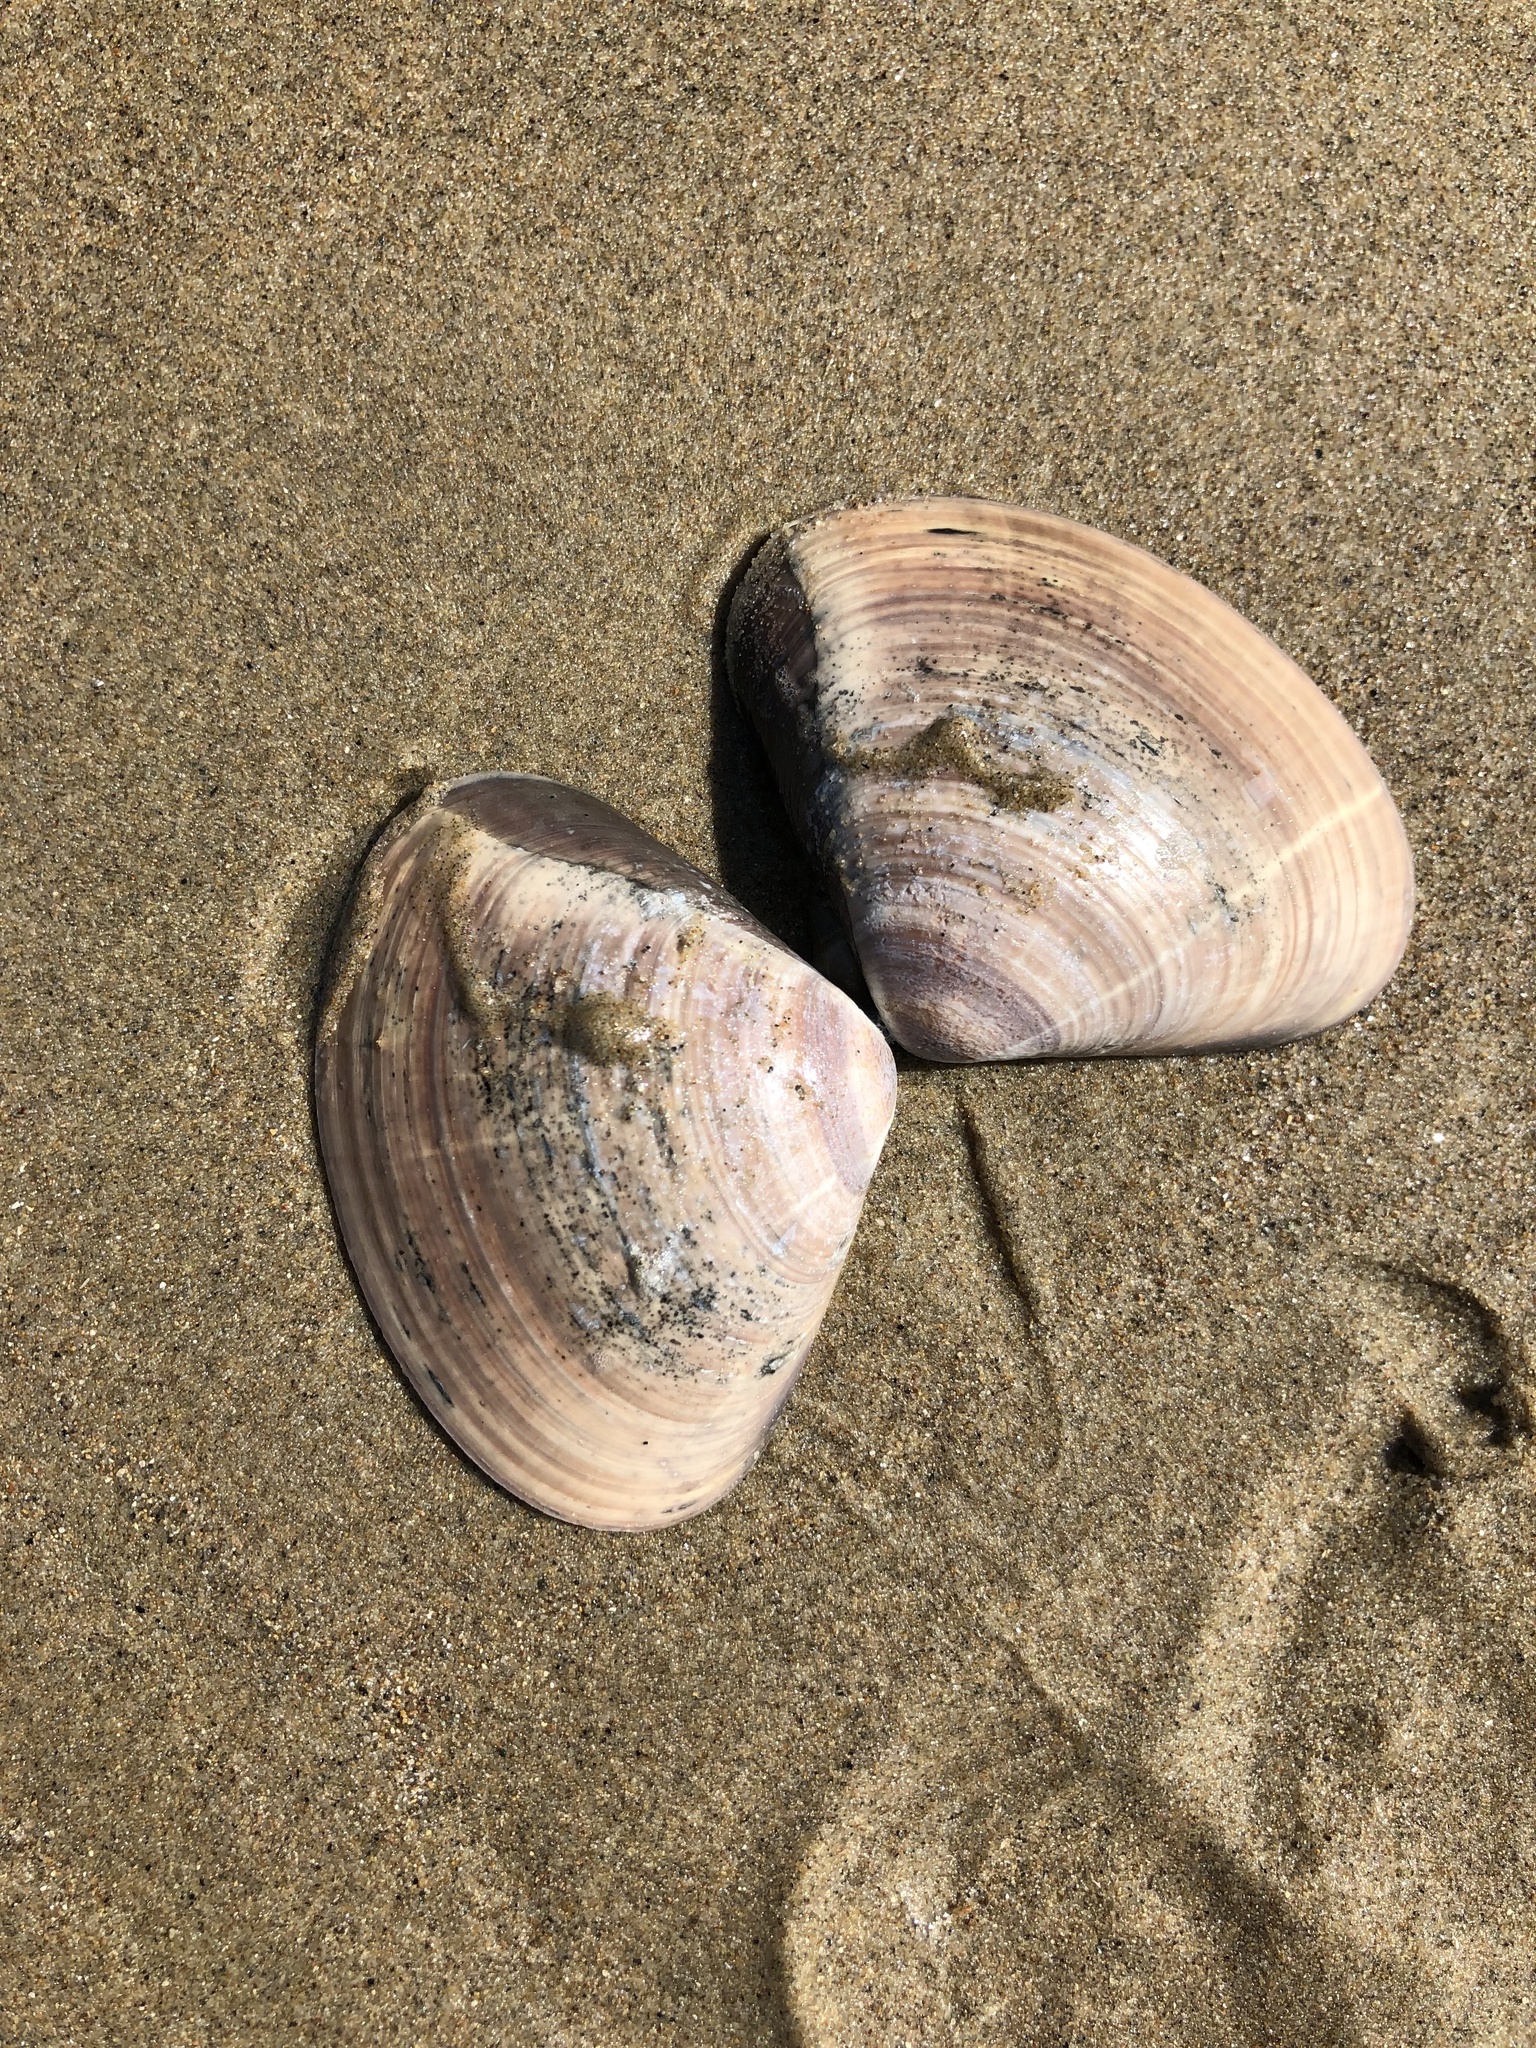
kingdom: Animalia
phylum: Mollusca
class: Bivalvia
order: Venerida
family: Veneridae
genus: Tivela
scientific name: Tivela stultorum
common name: Pismo clam
